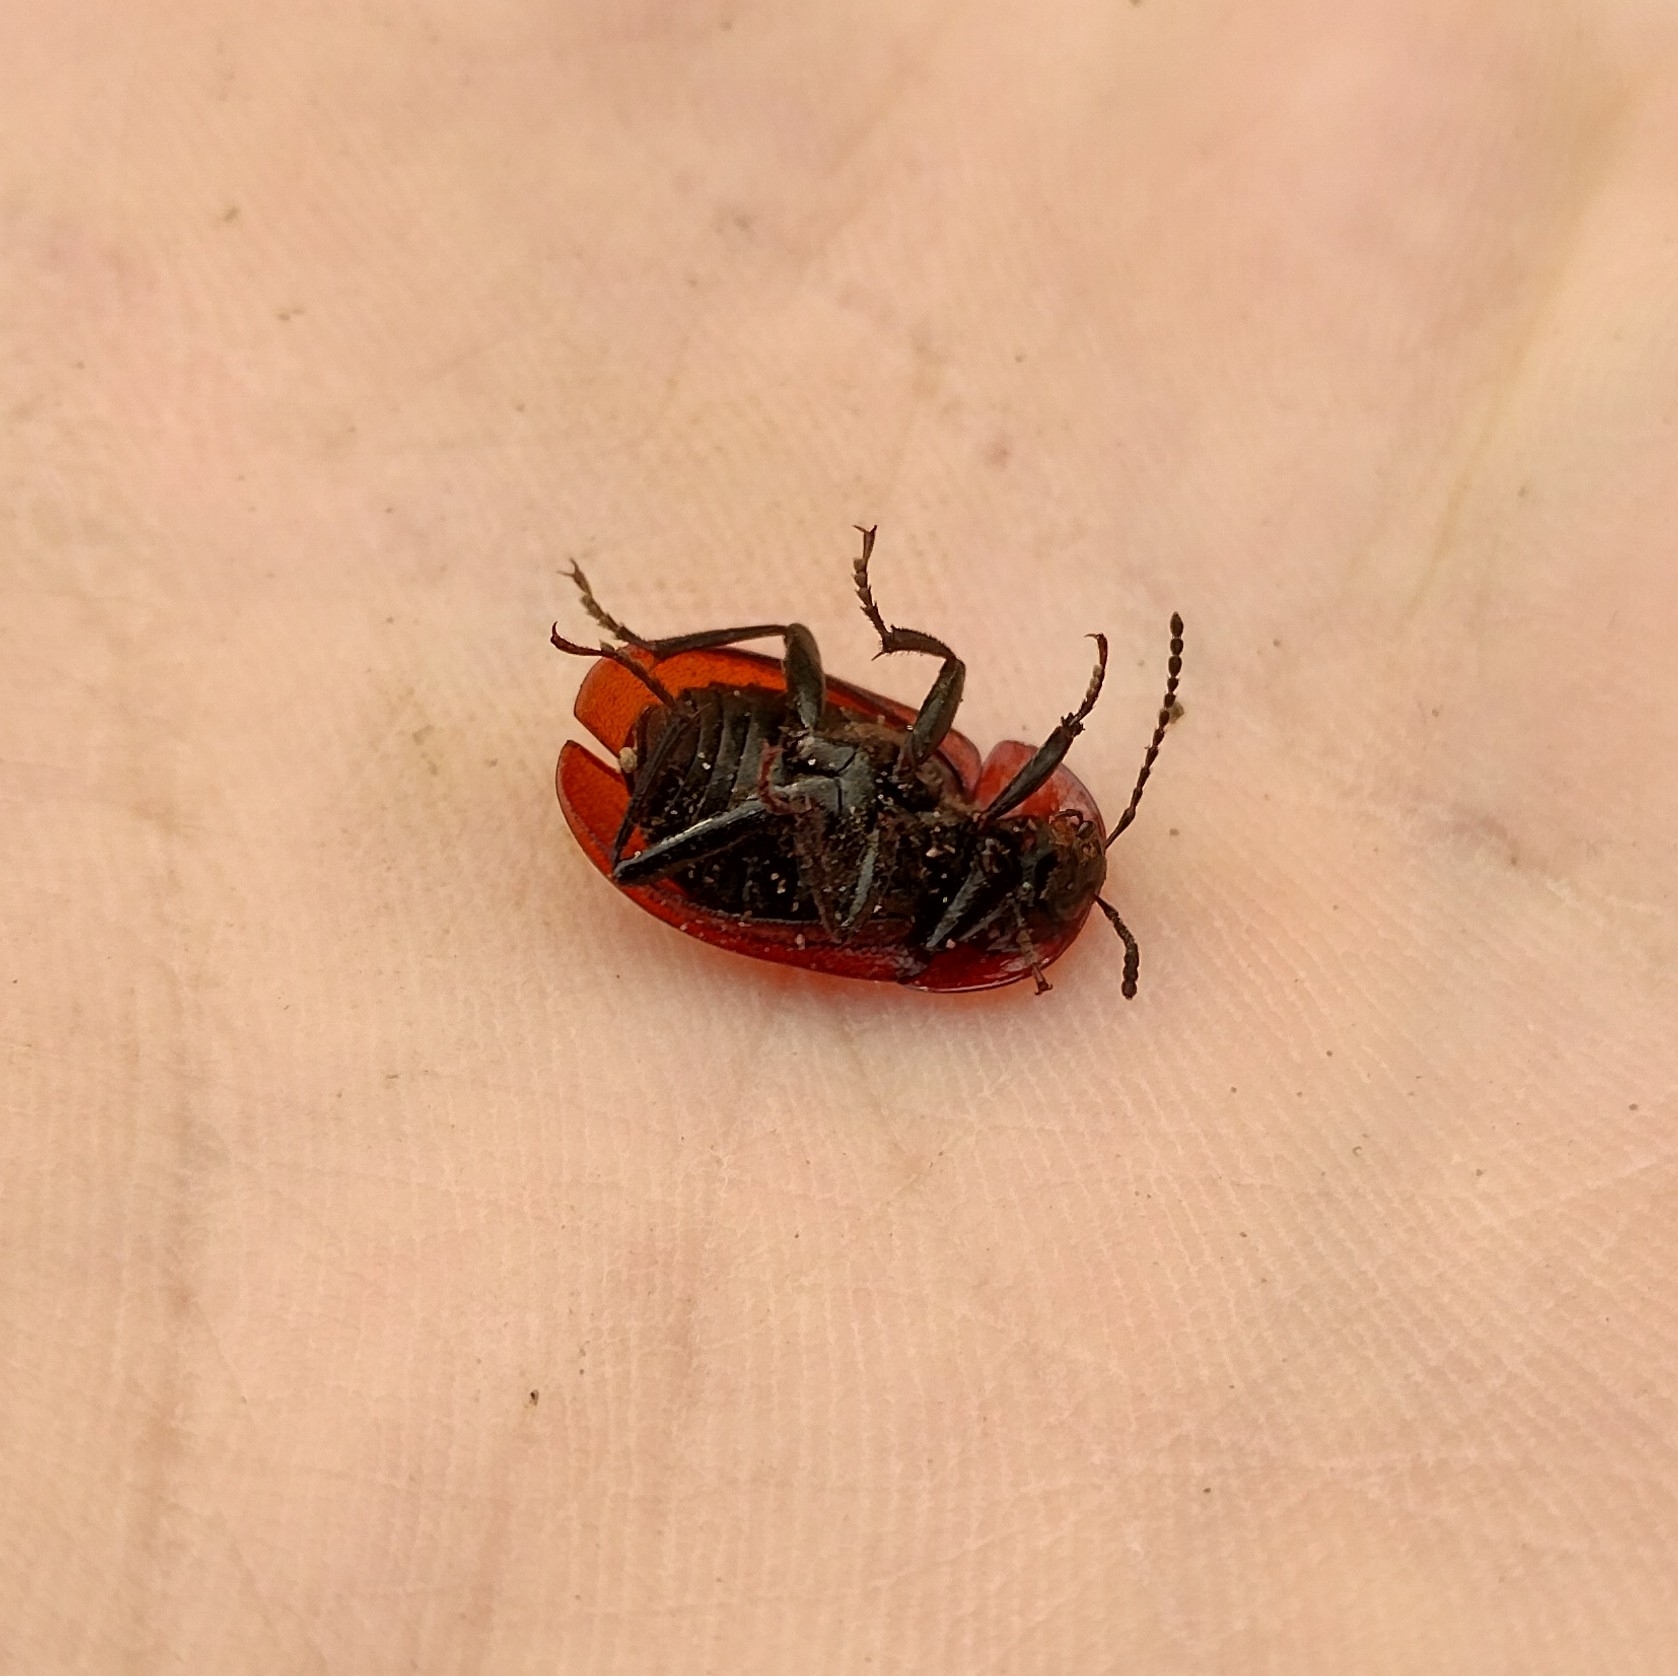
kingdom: Animalia
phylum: Arthropoda
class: Insecta
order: Coleoptera
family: Staphylinidae
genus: Silpha
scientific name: Silpha atrata
